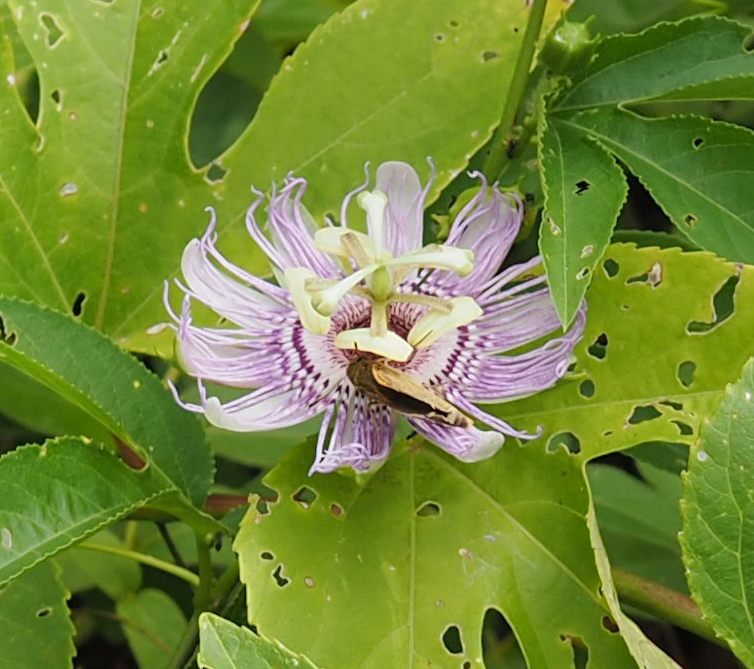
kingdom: Plantae
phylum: Tracheophyta
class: Magnoliopsida
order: Malpighiales
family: Passifloraceae
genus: Passiflora
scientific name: Passiflora incarnata
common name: Apricot-vine
